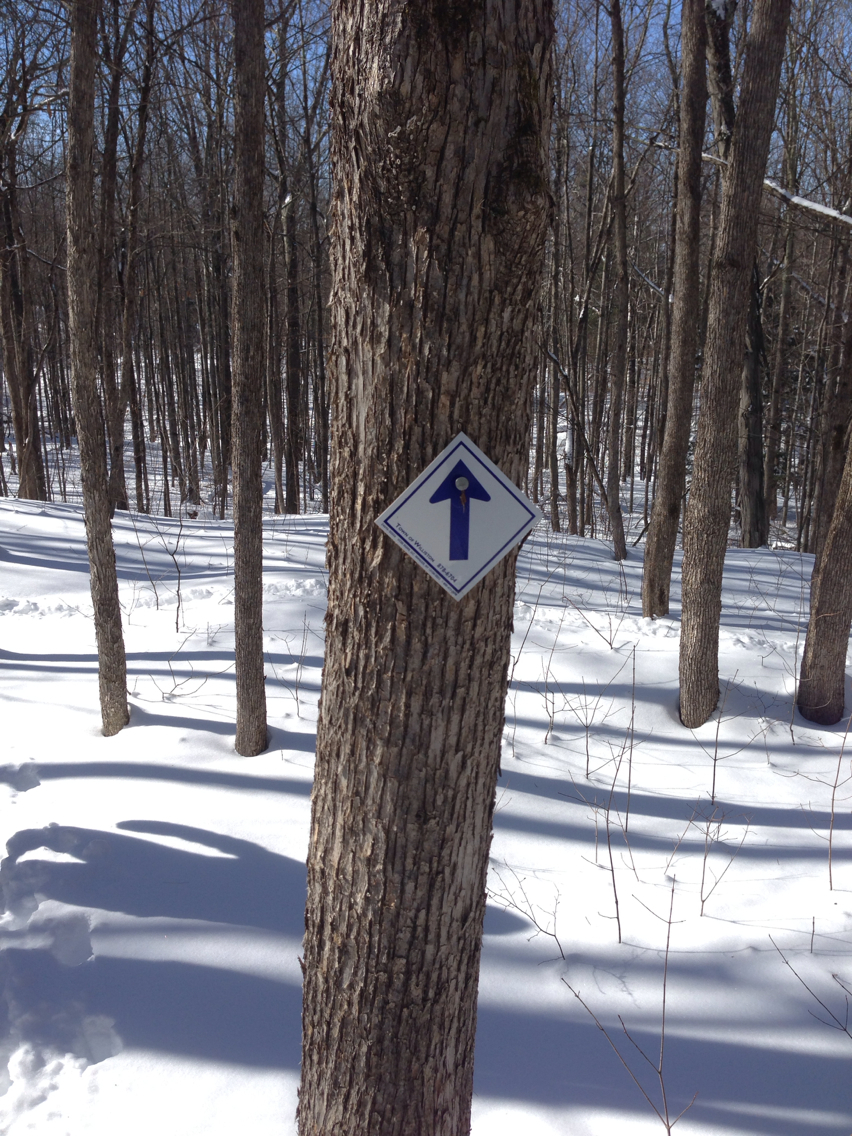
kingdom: Plantae
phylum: Tracheophyta
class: Magnoliopsida
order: Fagales
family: Betulaceae
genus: Ostrya
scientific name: Ostrya virginiana
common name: Ironwood
